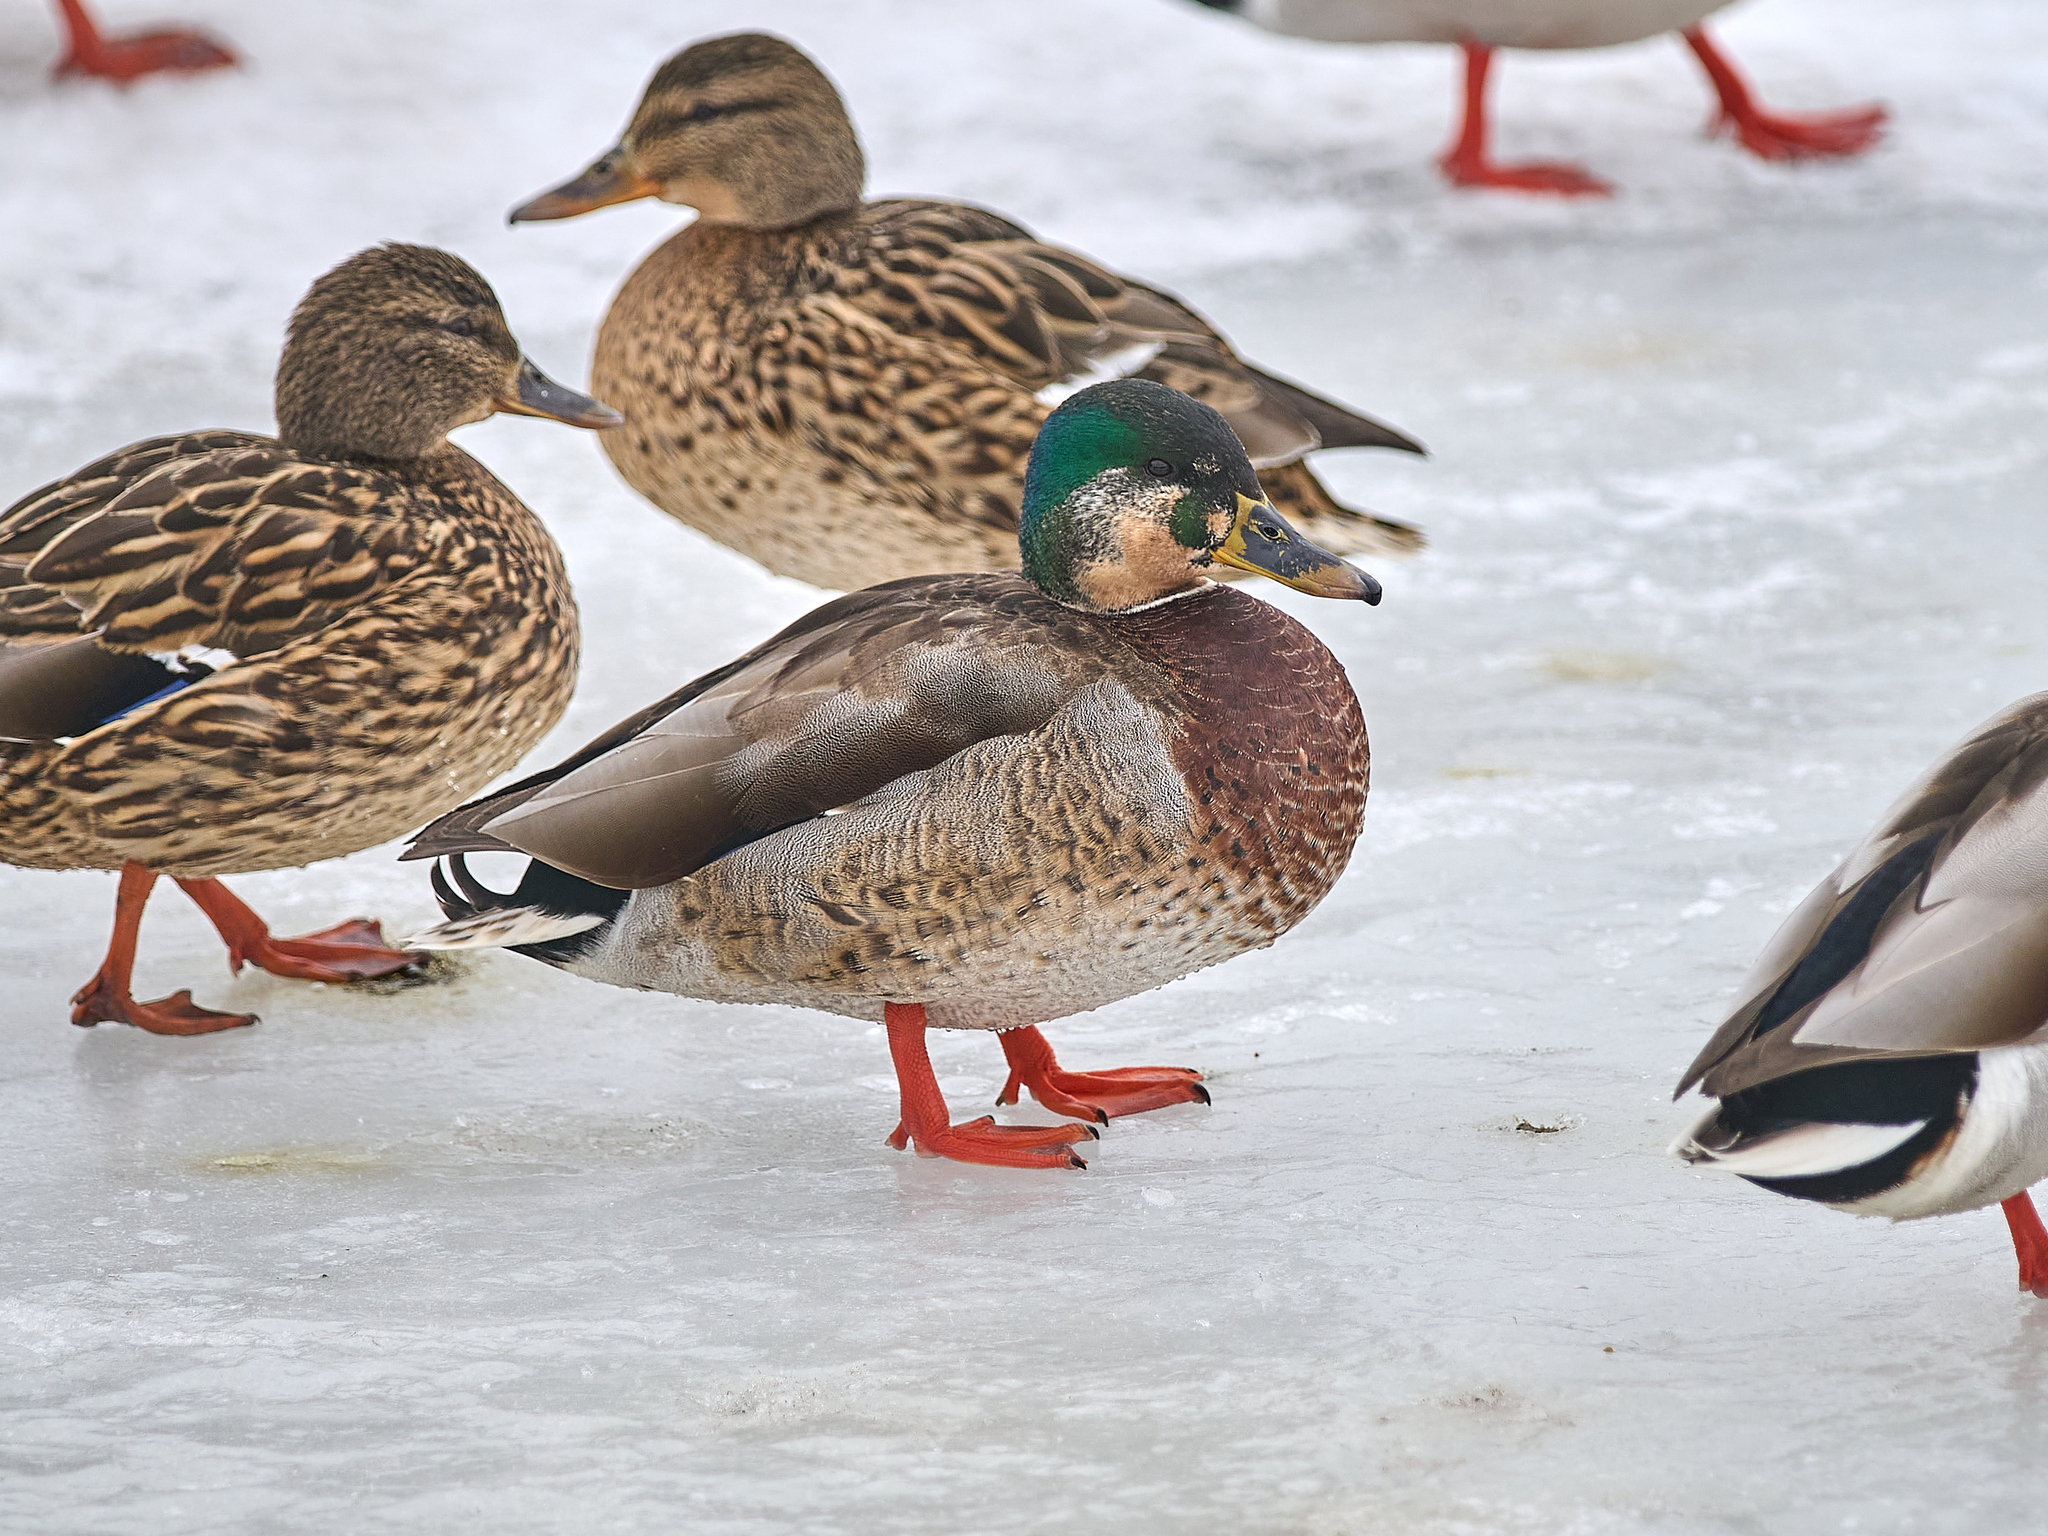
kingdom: Animalia
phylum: Chordata
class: Aves
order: Anseriformes
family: Anatidae
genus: Anas
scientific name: Anas platyrhynchos
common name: Mallard
